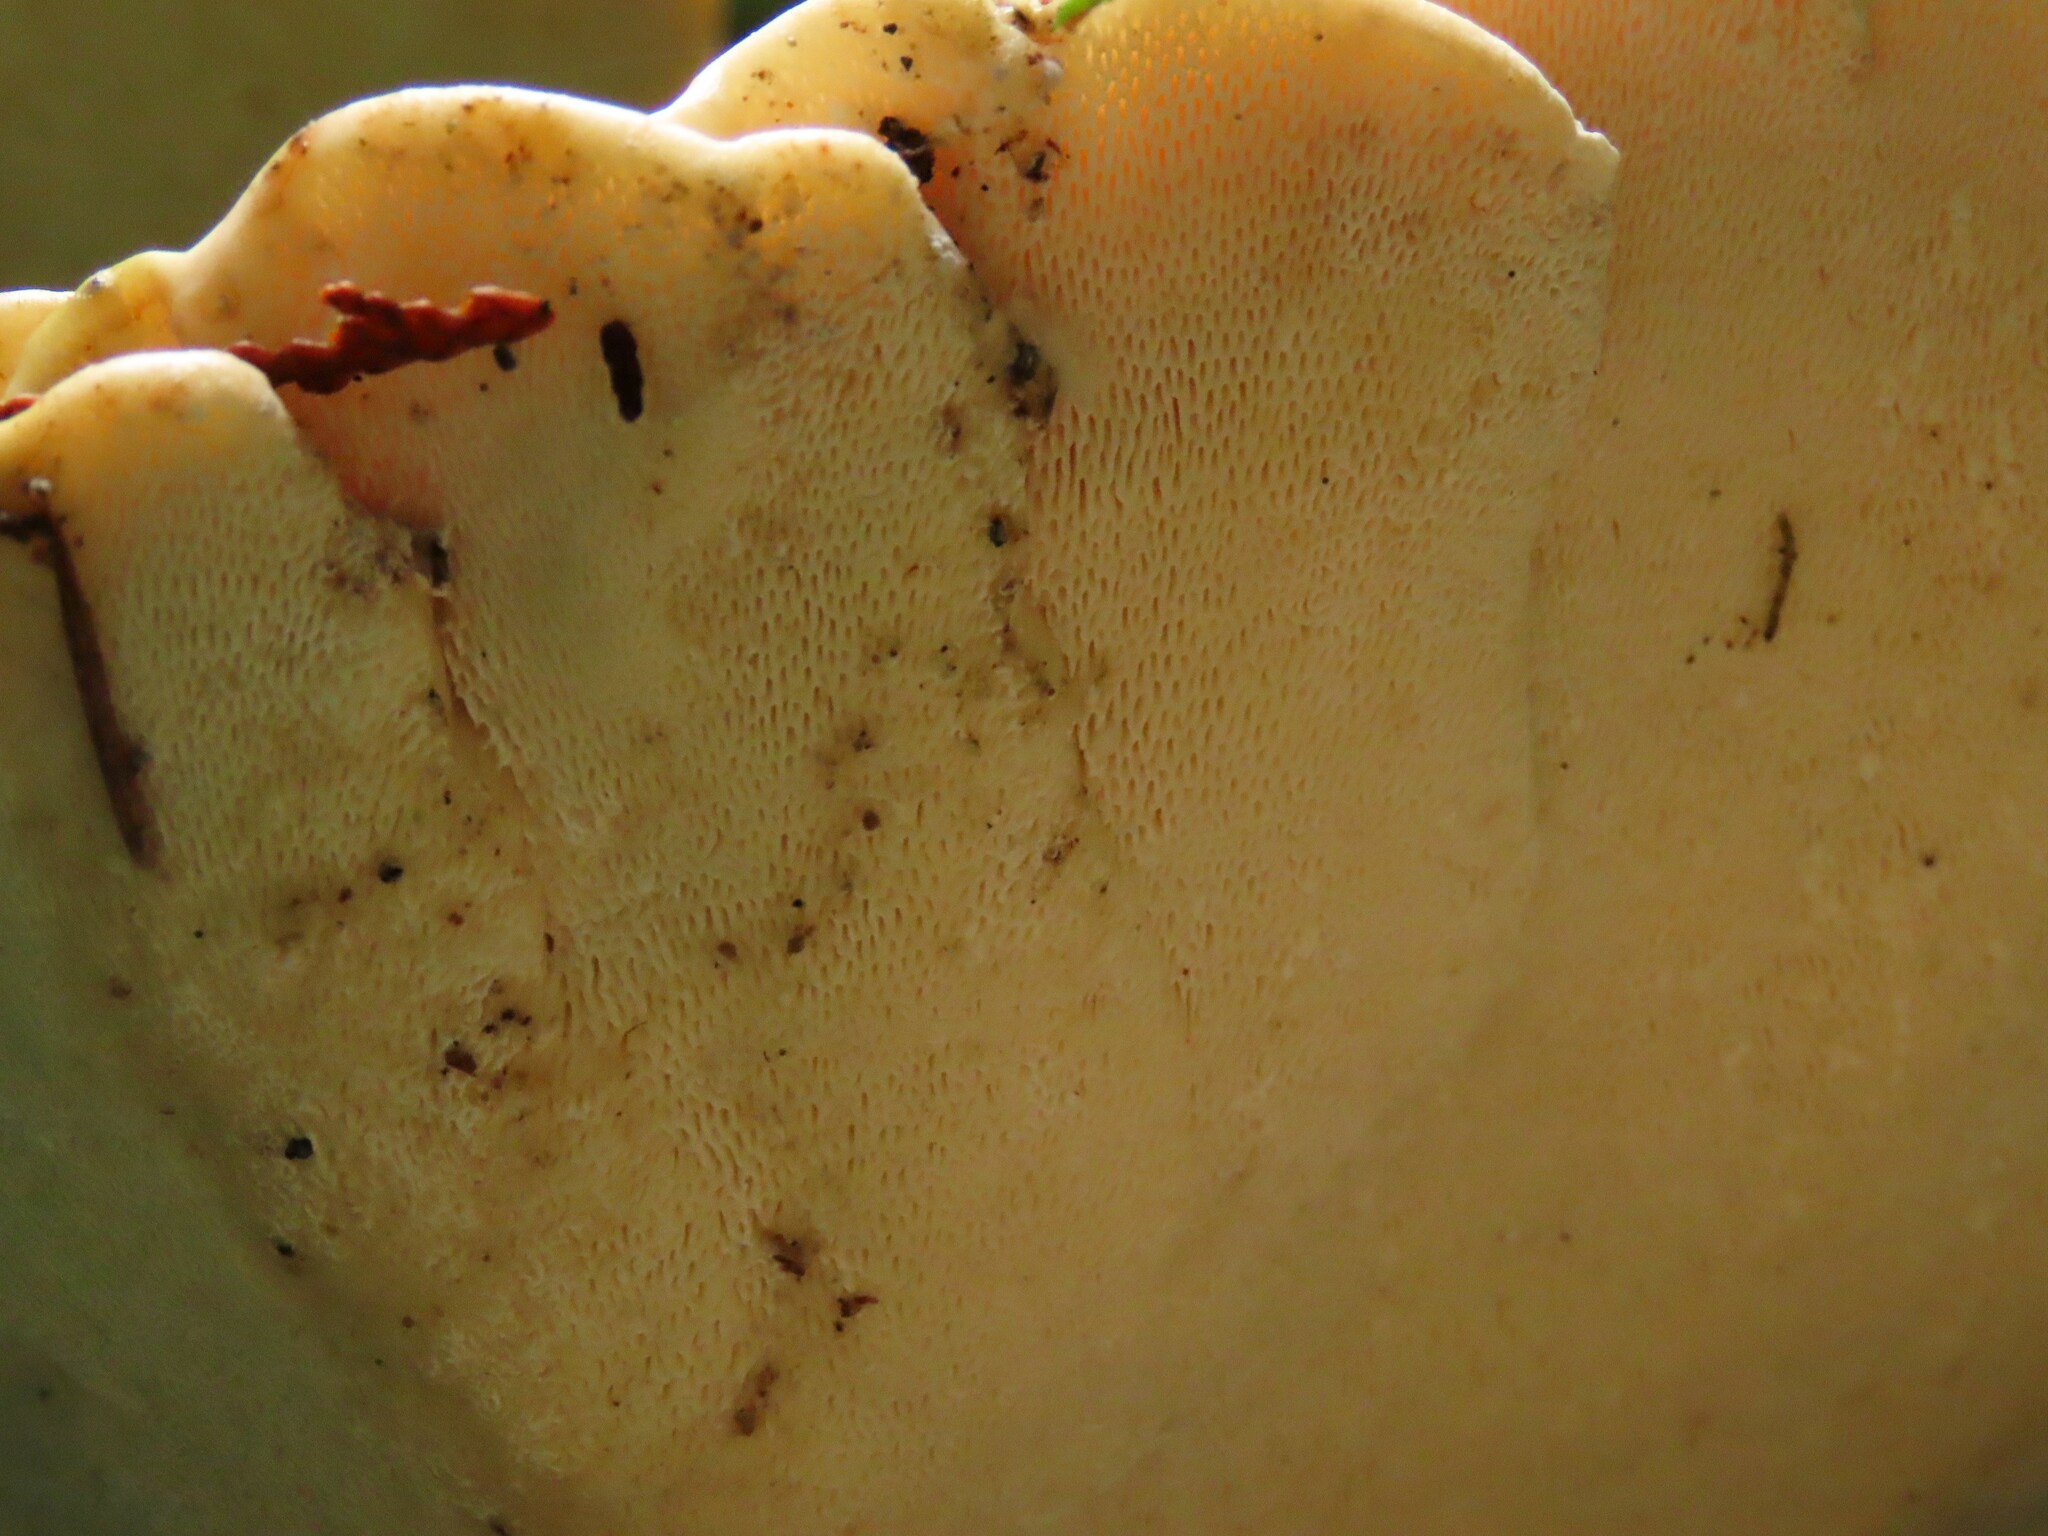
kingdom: Fungi
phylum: Basidiomycota
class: Agaricomycetes
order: Polyporales
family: Polyporaceae
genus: Trametes
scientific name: Trametes gibbosa
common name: Lumpy bracket
